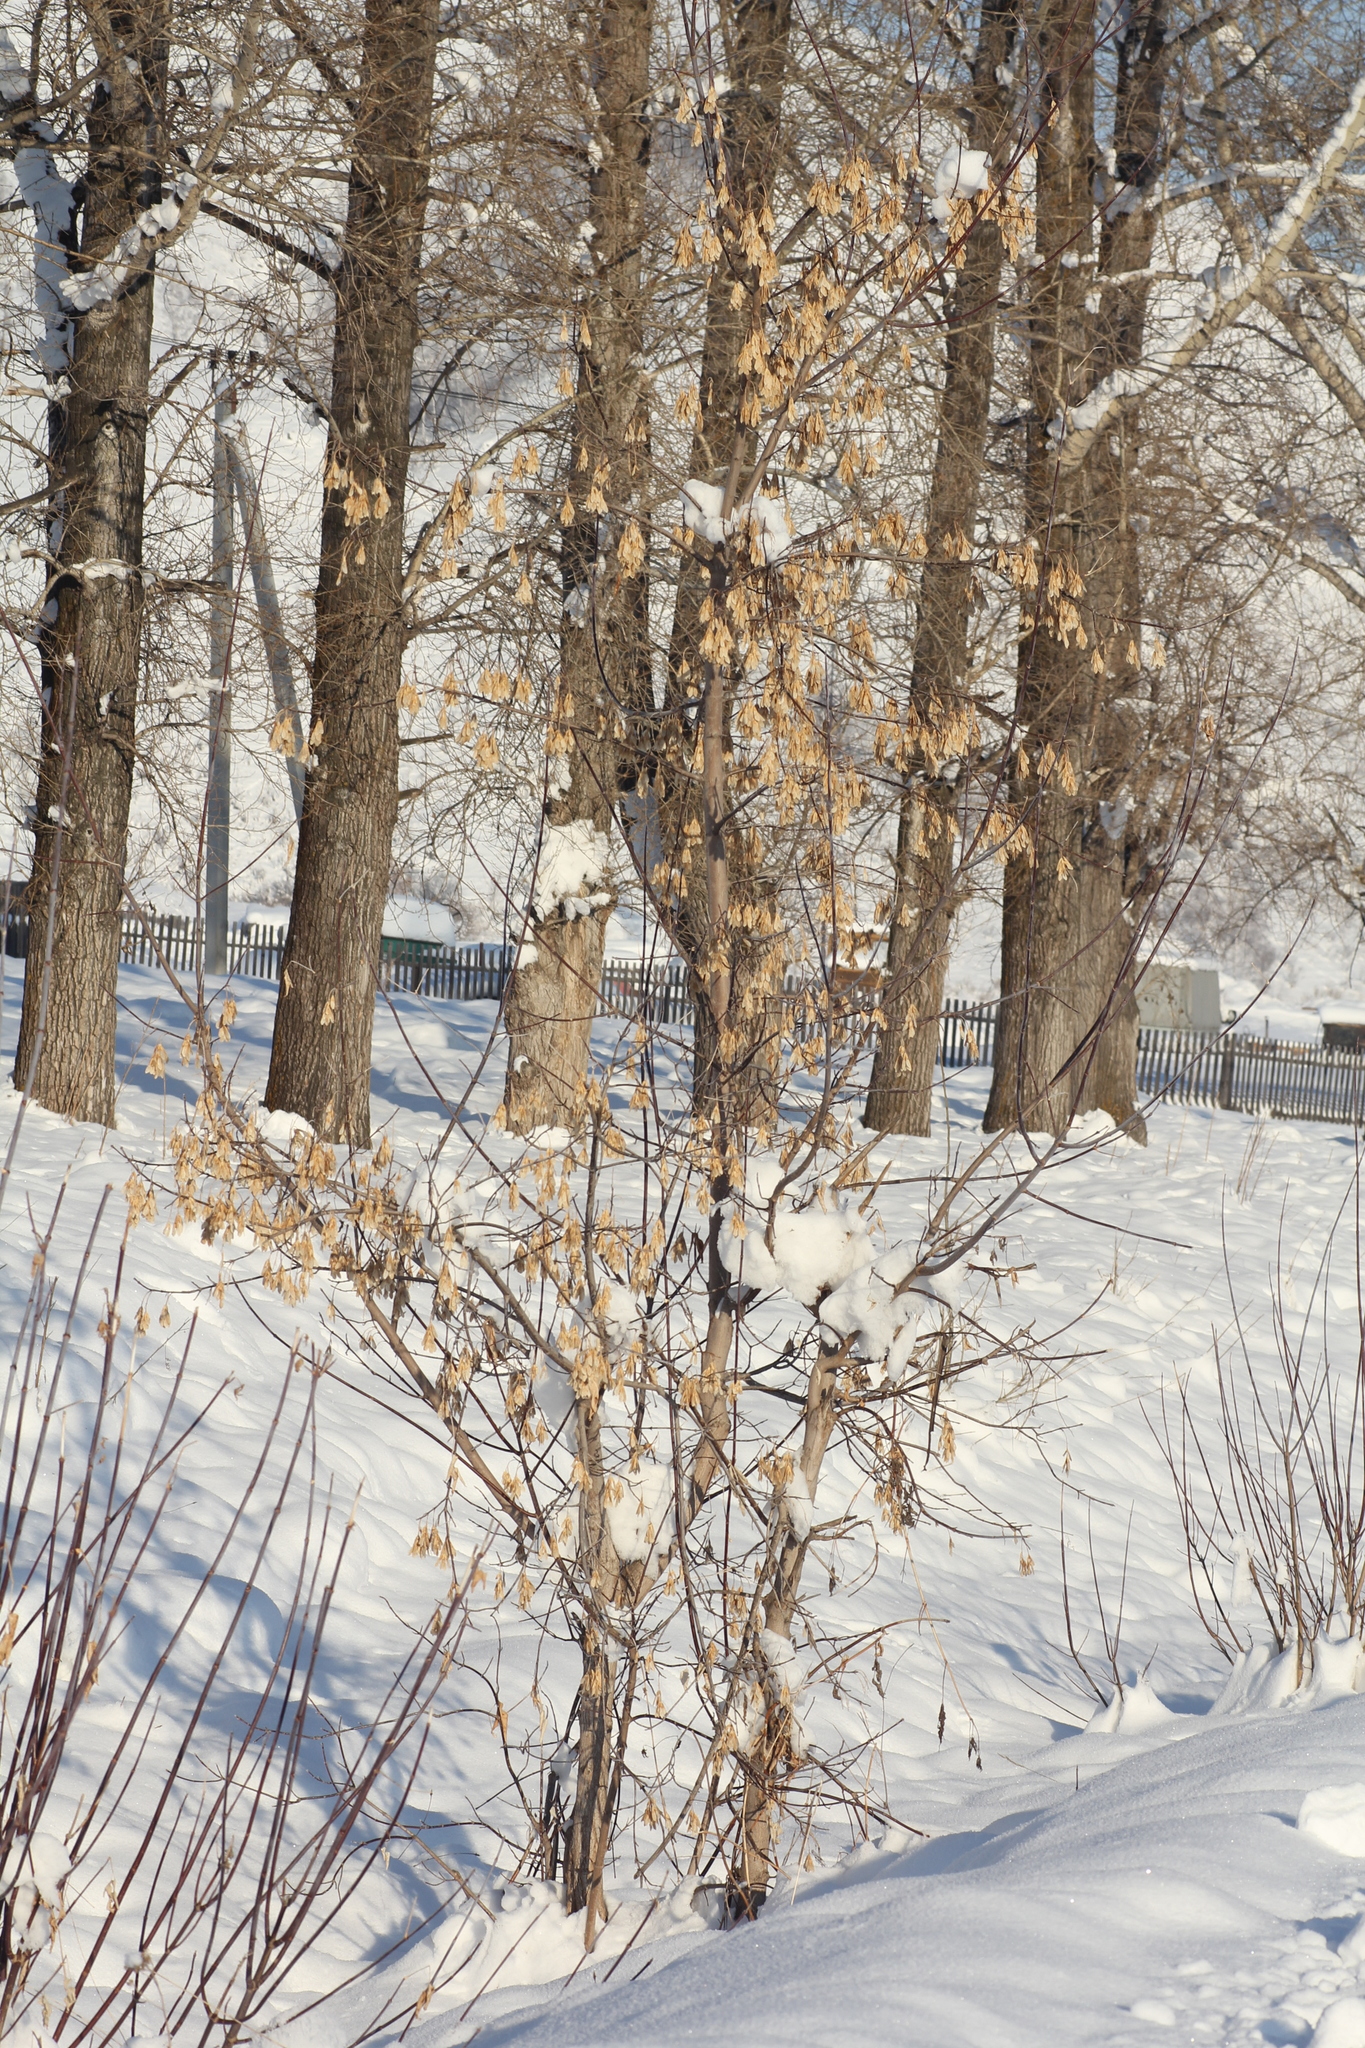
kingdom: Plantae
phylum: Tracheophyta
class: Magnoliopsida
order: Sapindales
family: Sapindaceae
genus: Acer
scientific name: Acer negundo
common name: Ashleaf maple
